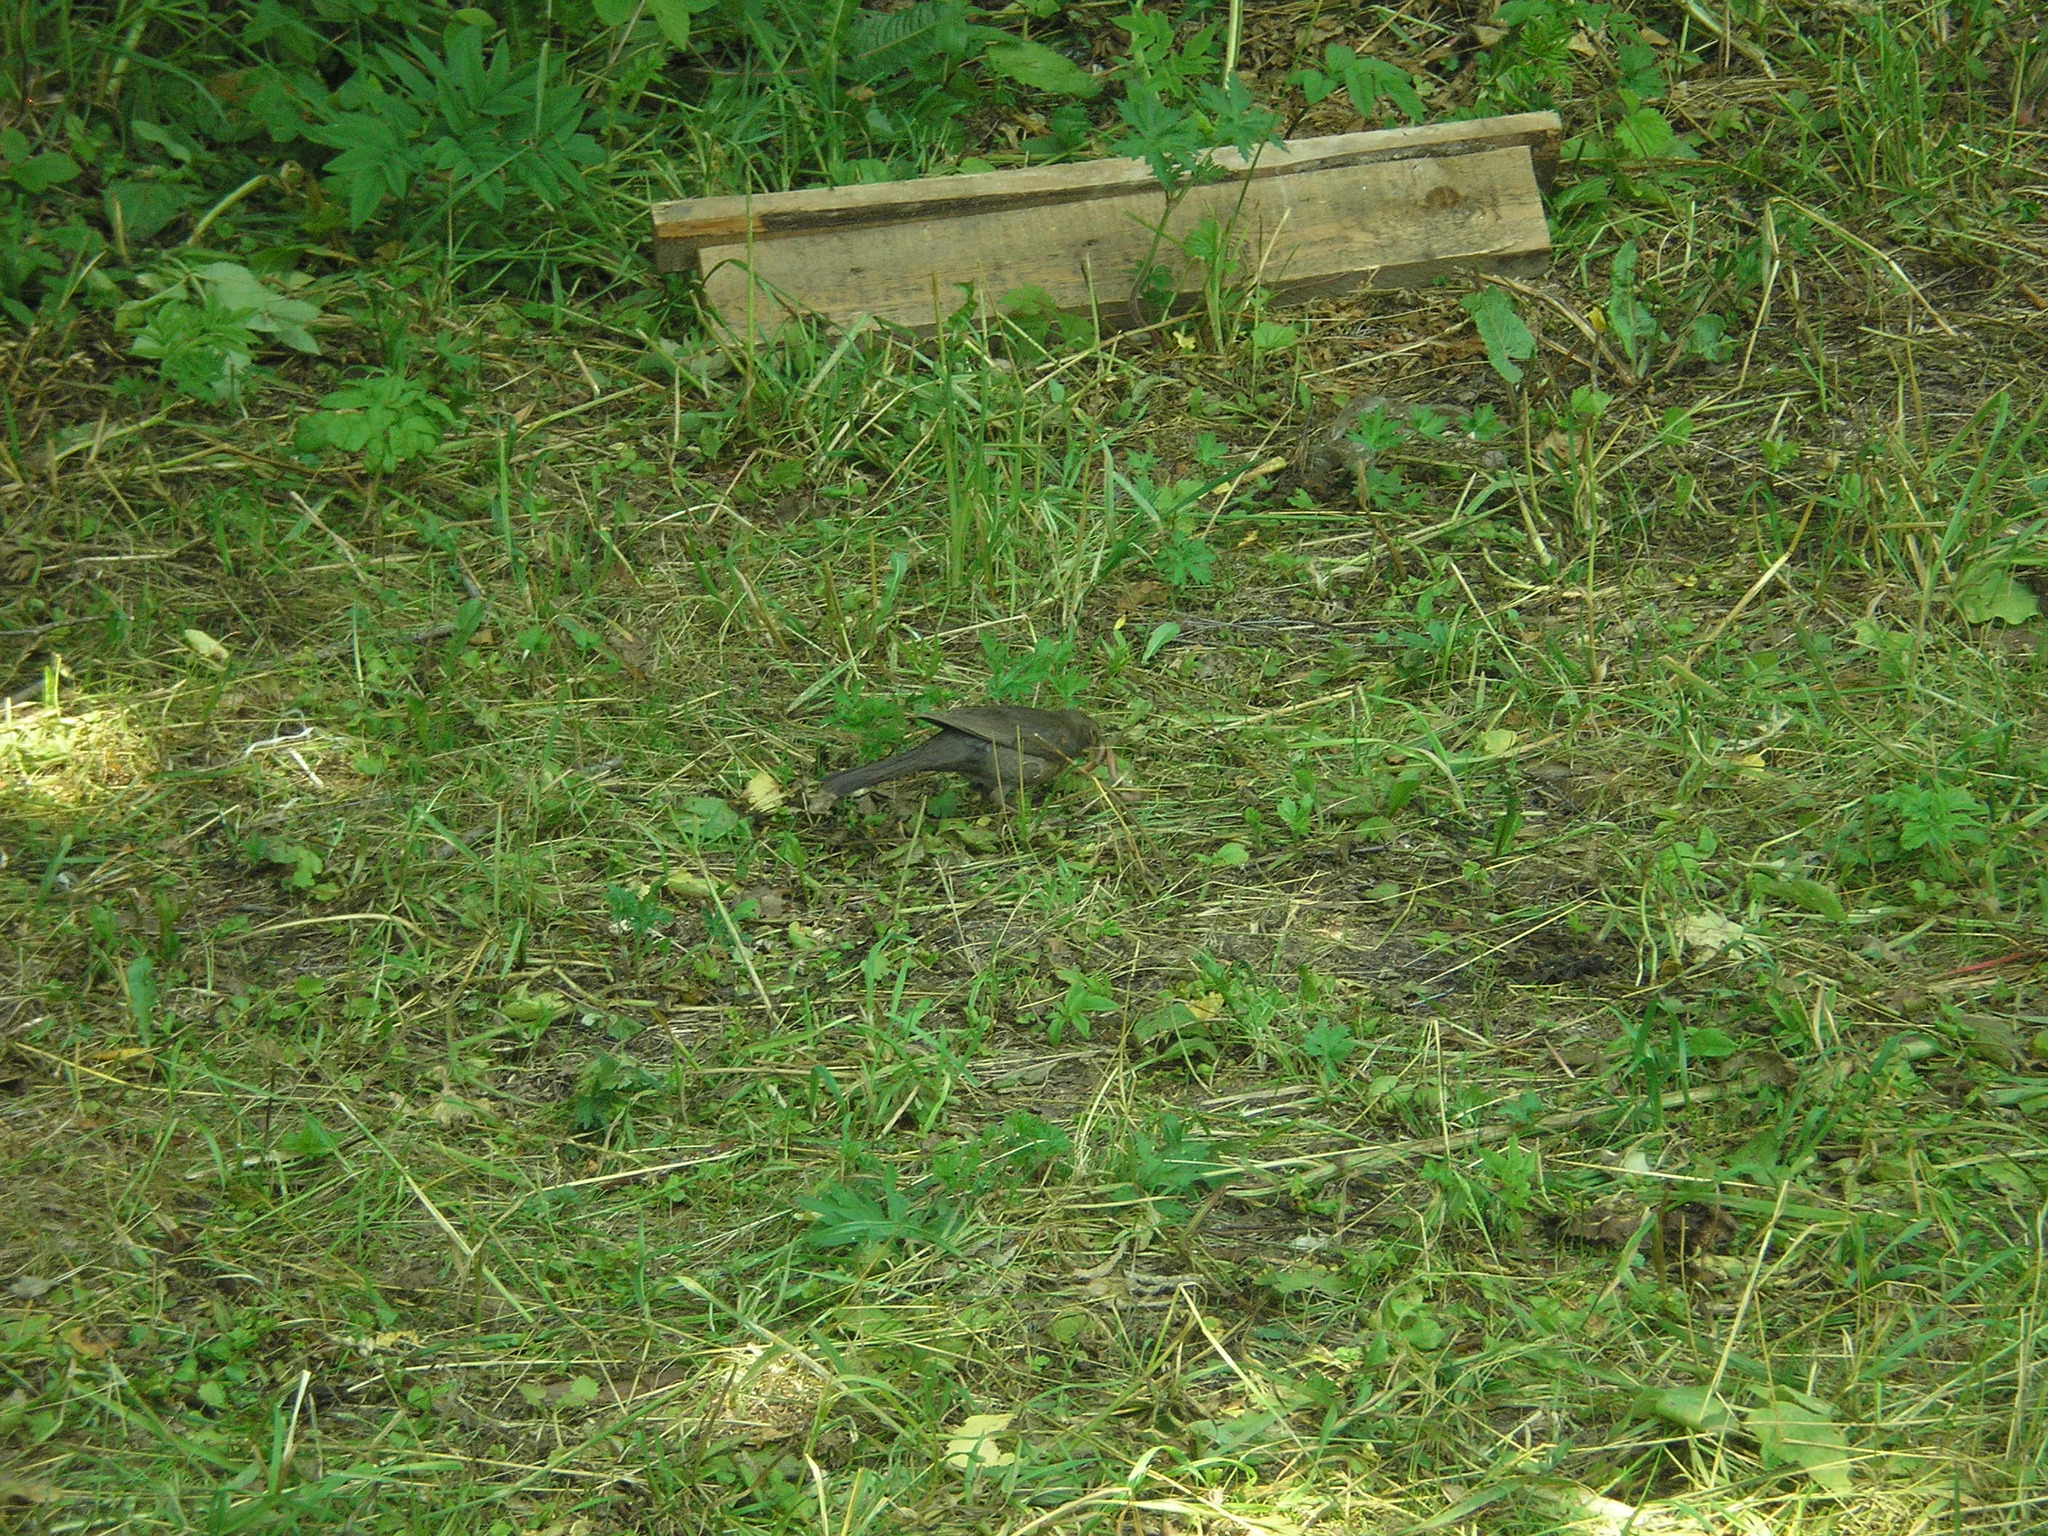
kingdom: Animalia
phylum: Chordata
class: Aves
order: Passeriformes
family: Turdidae
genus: Turdus
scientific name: Turdus merula
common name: Common blackbird
